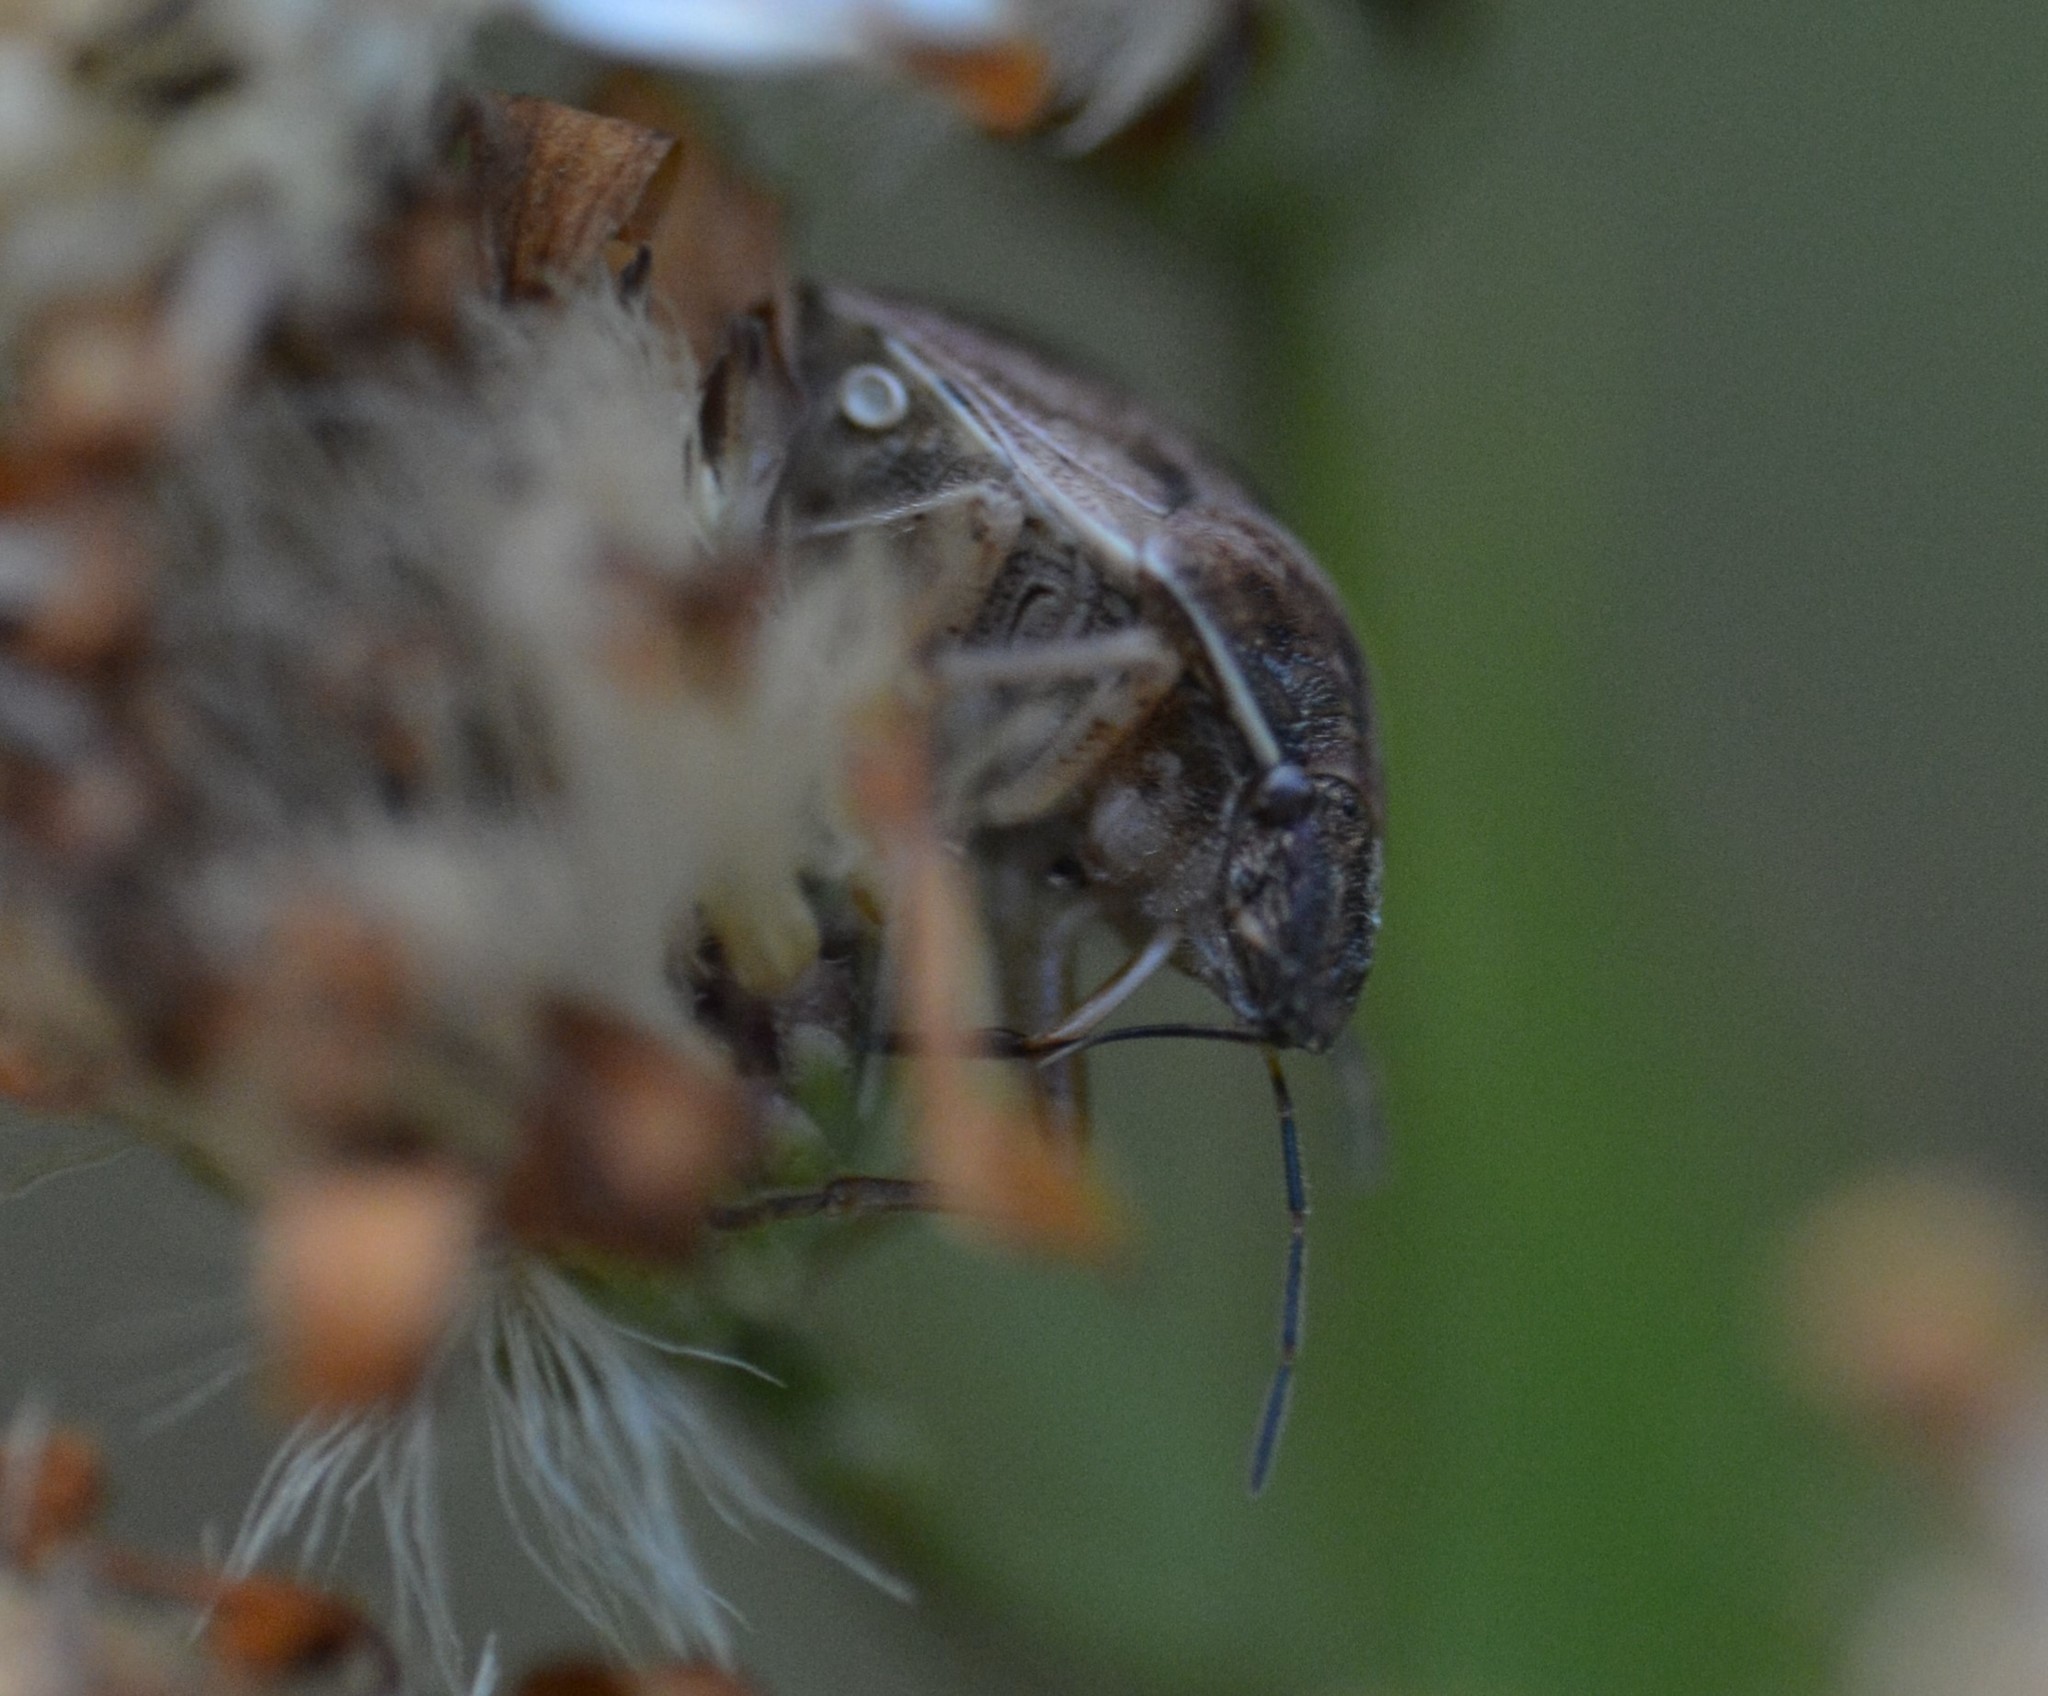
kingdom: Animalia
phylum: Arthropoda
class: Insecta
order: Hemiptera
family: Scutelleridae
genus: Homaemus
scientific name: Homaemus aeneifrons
